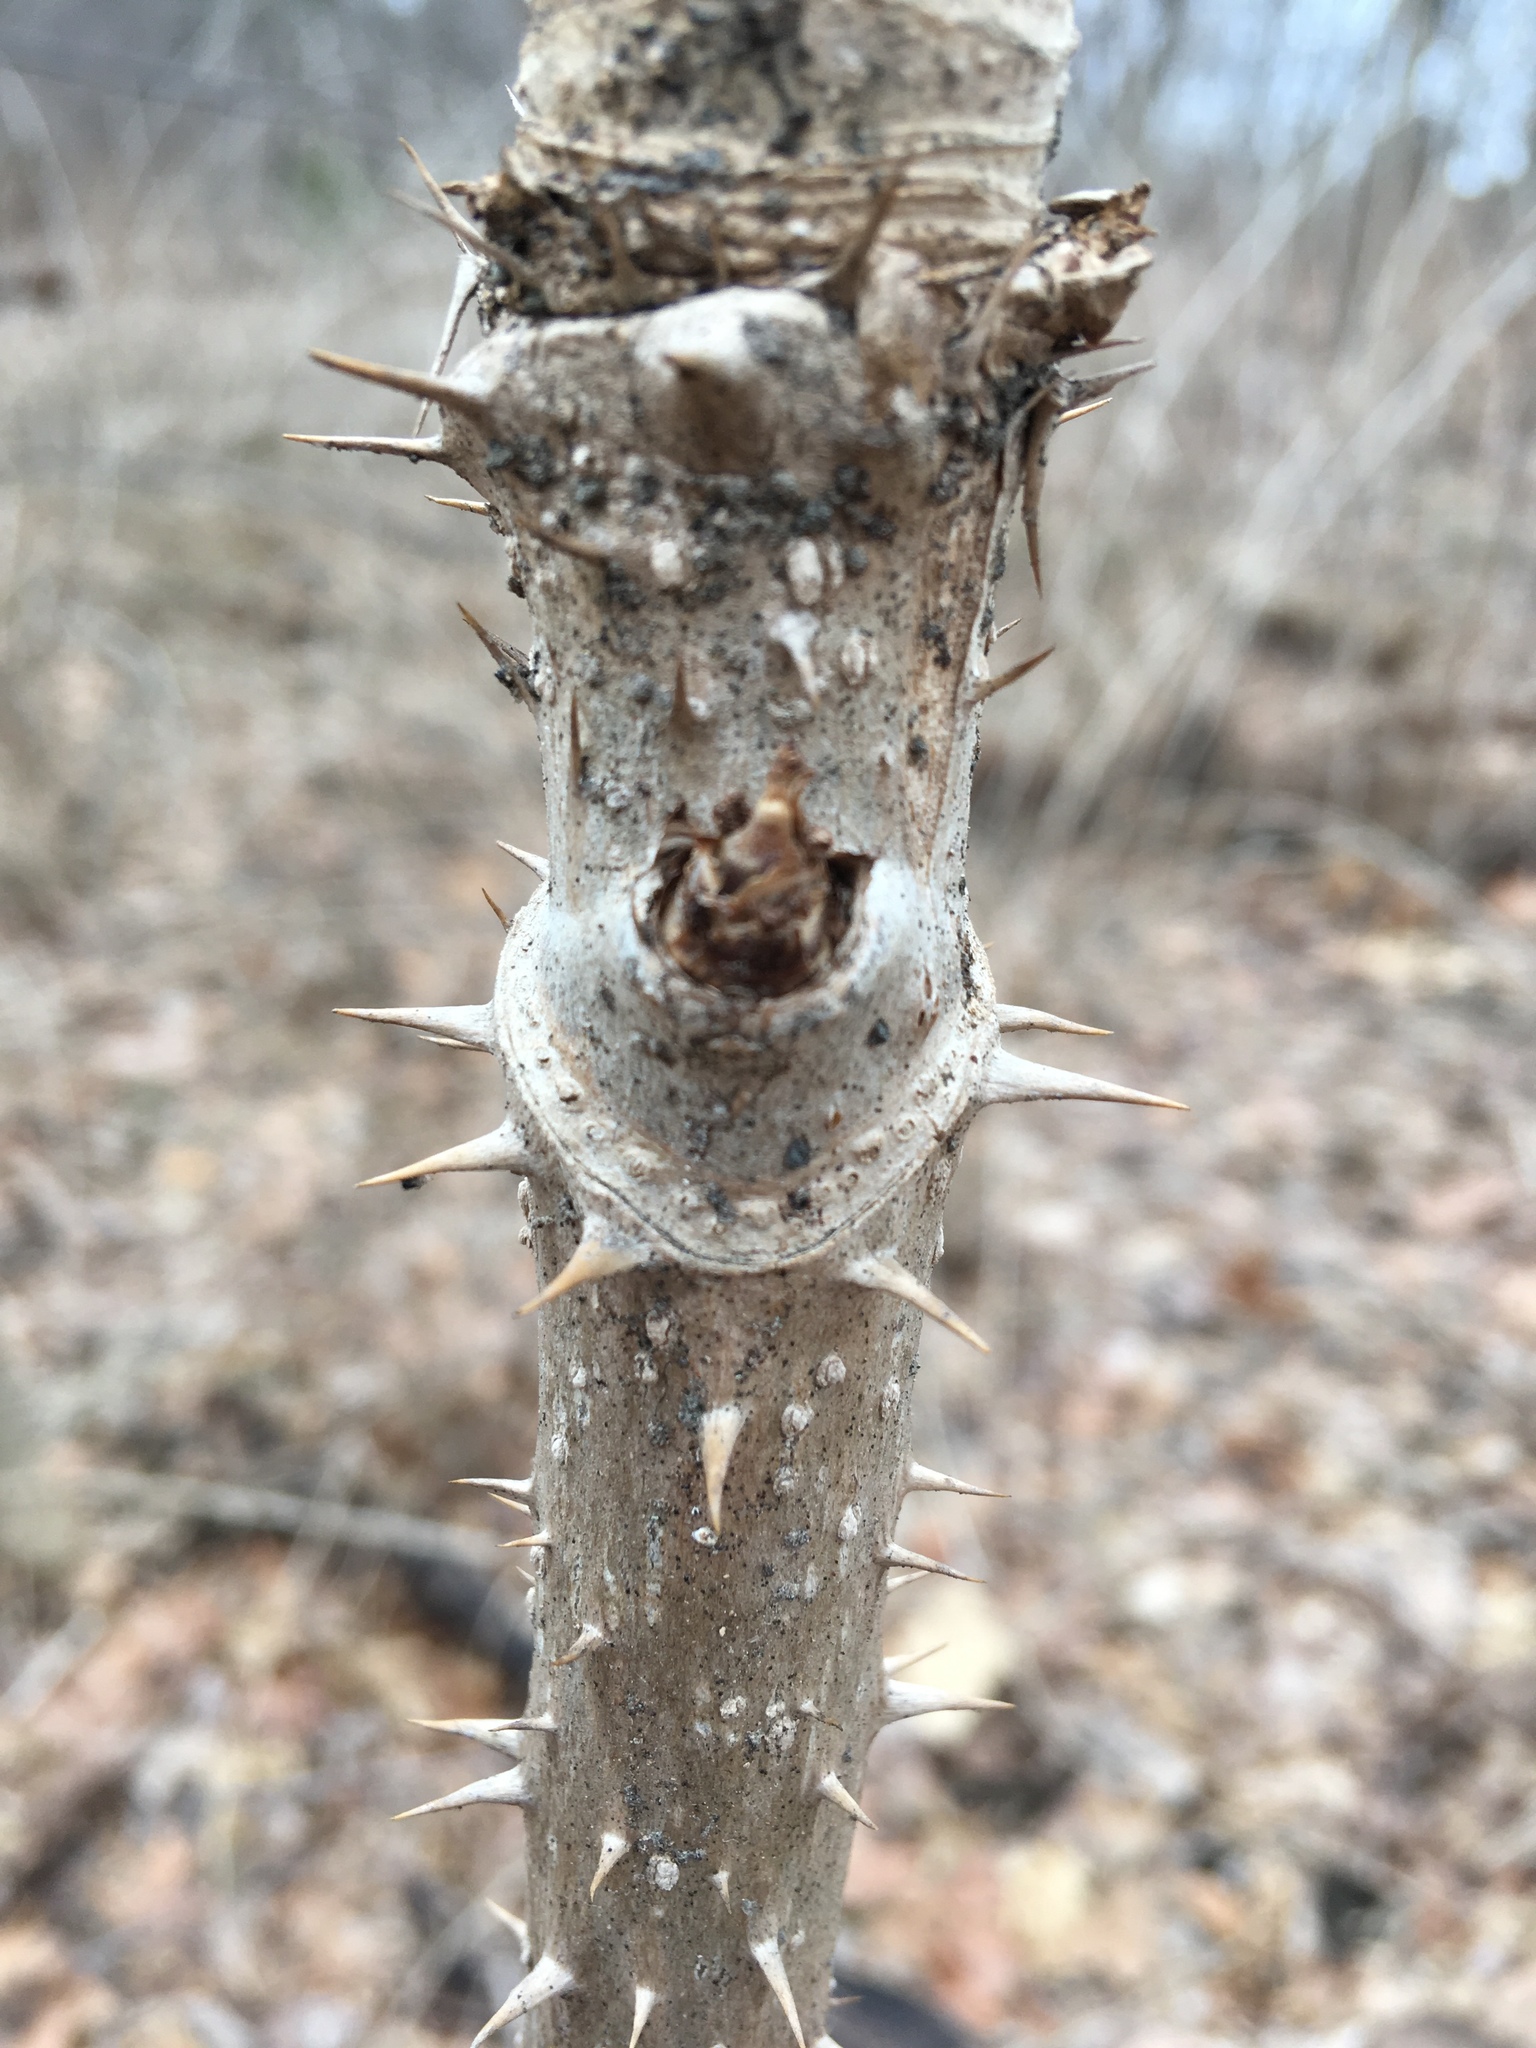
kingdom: Plantae
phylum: Tracheophyta
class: Magnoliopsida
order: Apiales
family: Araliaceae
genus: Aralia
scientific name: Aralia elata
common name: Japanese angelica-tree
